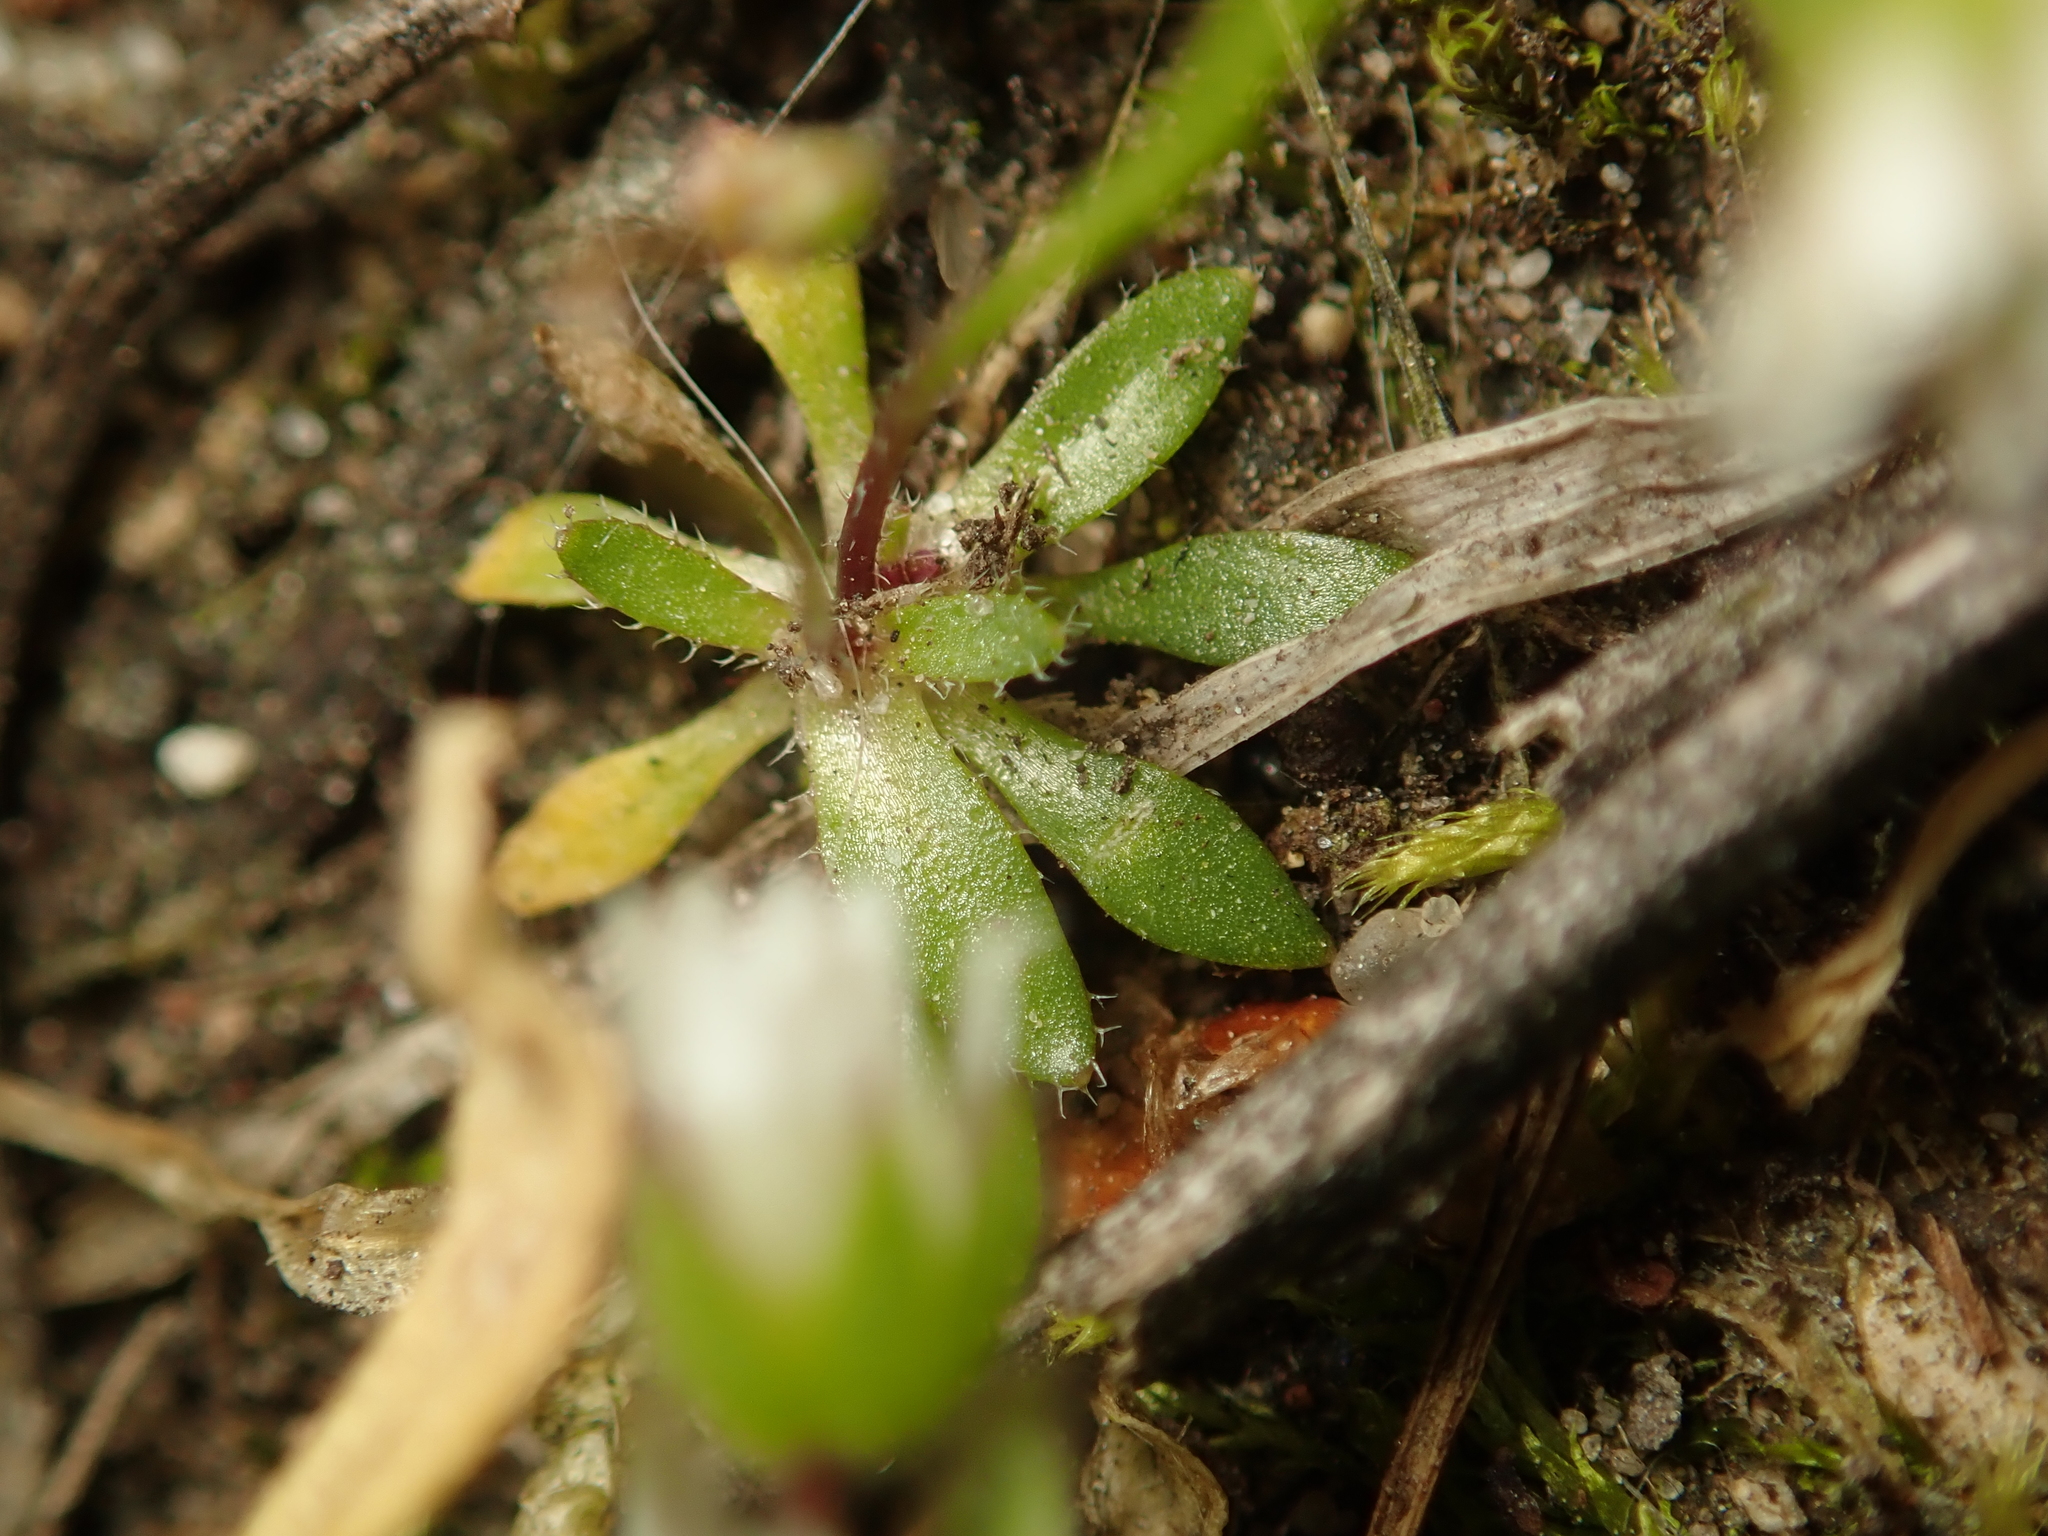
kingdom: Plantae
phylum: Tracheophyta
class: Magnoliopsida
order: Brassicales
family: Brassicaceae
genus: Draba
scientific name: Draba verna
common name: Spring draba
